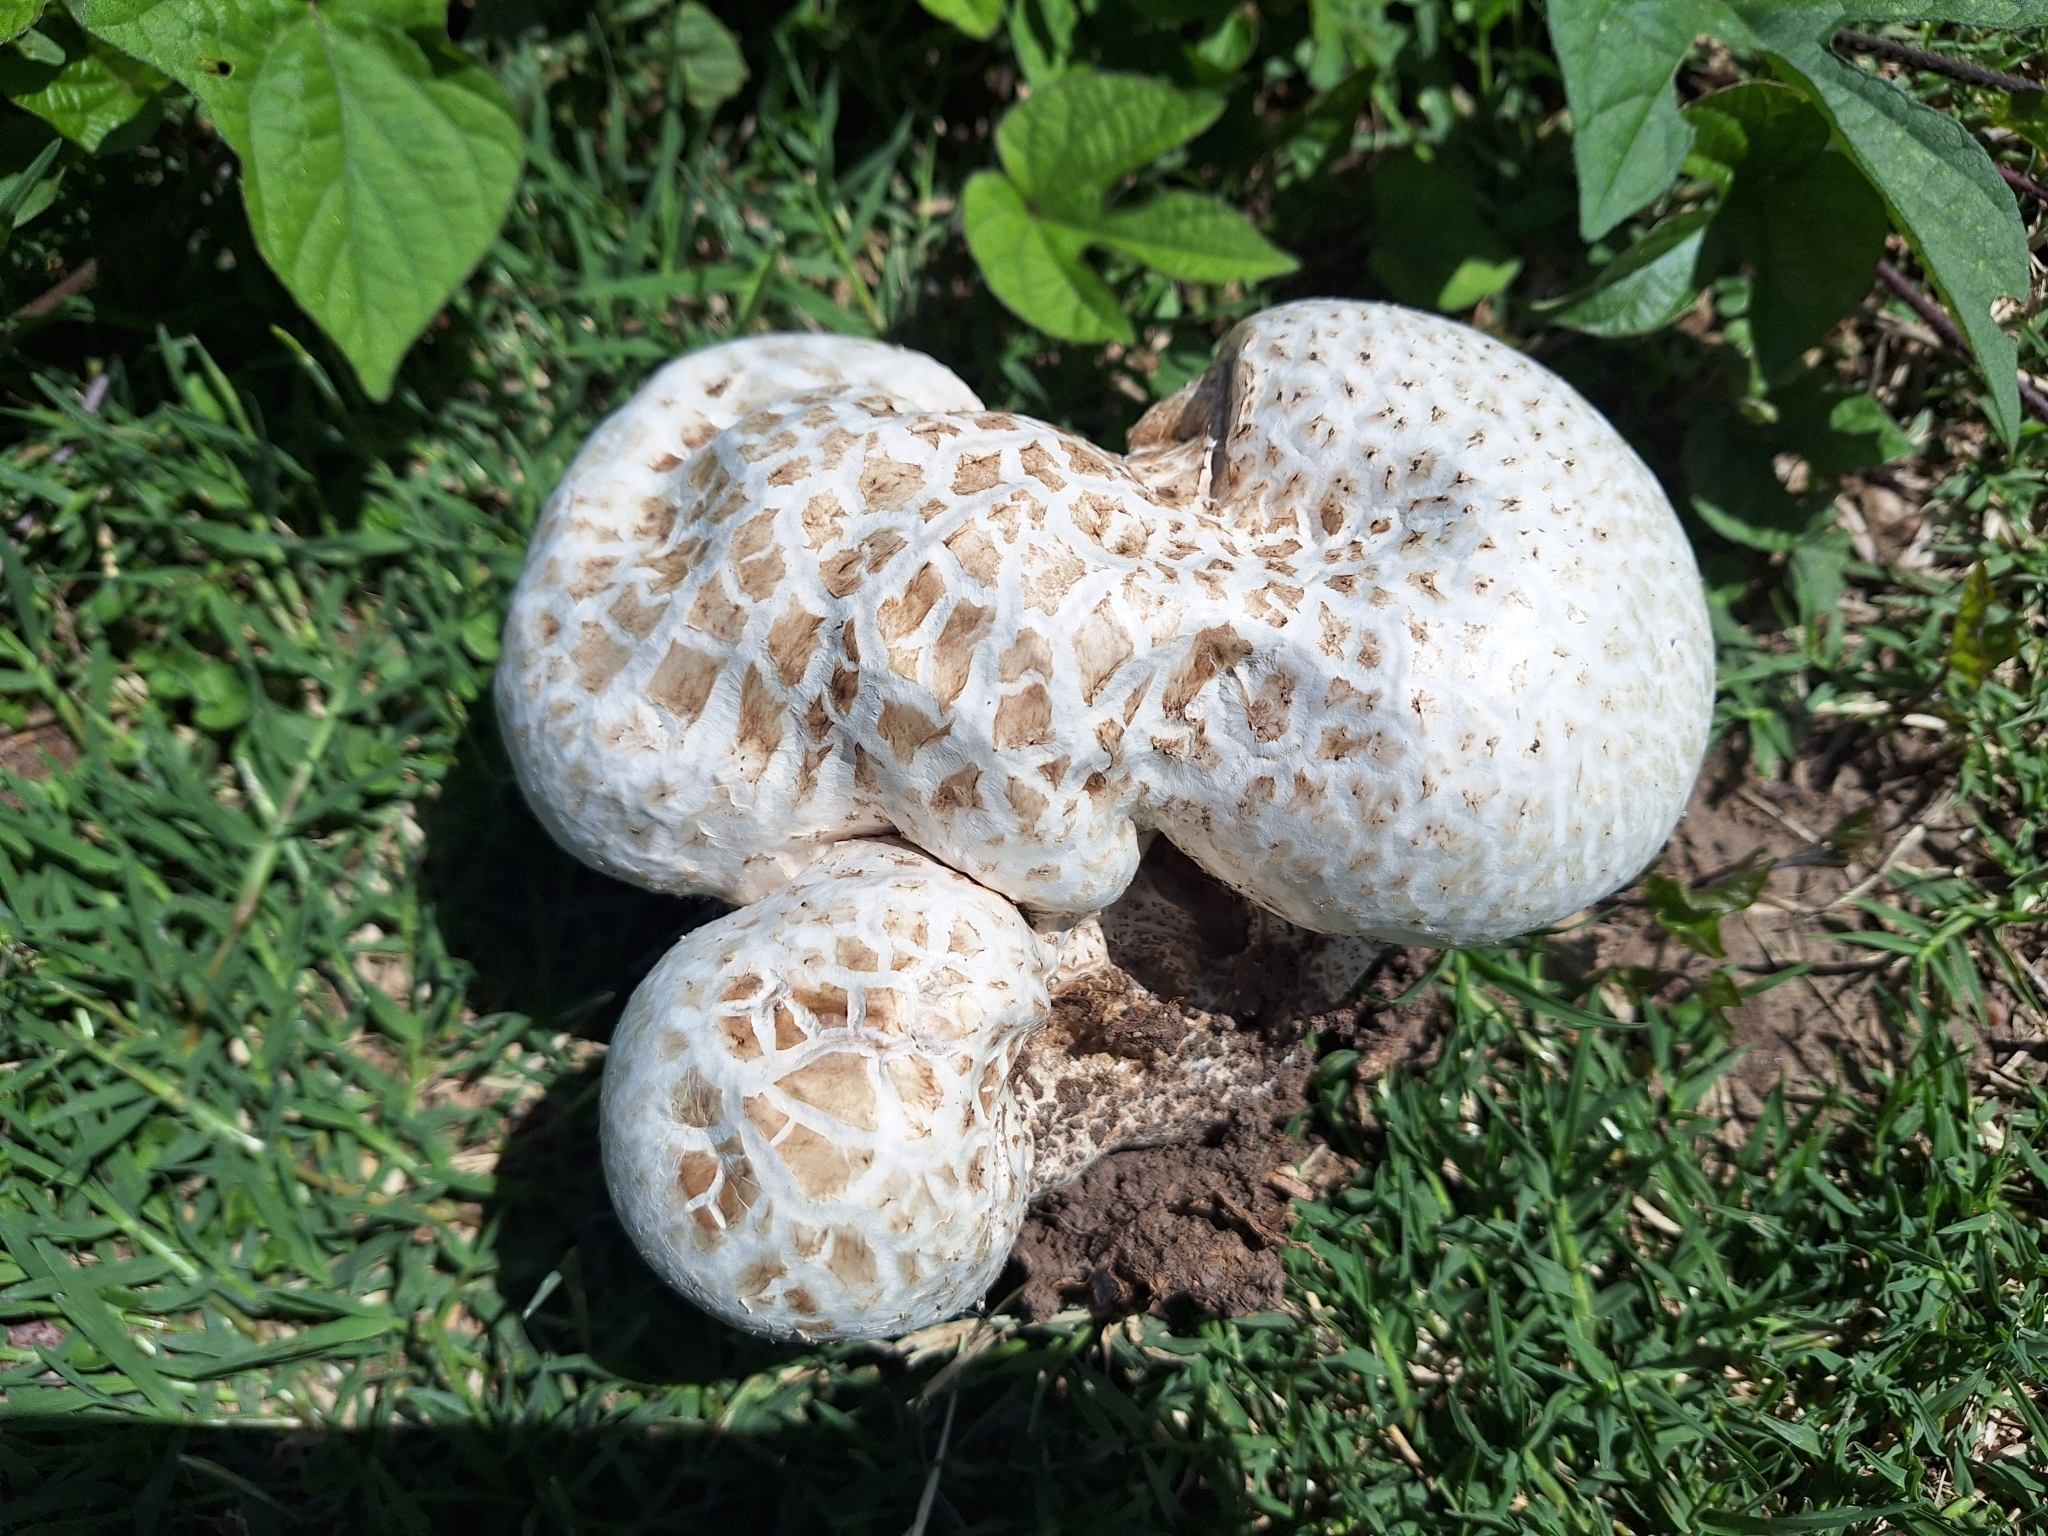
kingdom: Fungi
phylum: Basidiomycota
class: Agaricomycetes
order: Agaricales
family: Lycoperdaceae
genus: Calvatia
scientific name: Calvatia cyathiformis
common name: Purple-spored puffball
